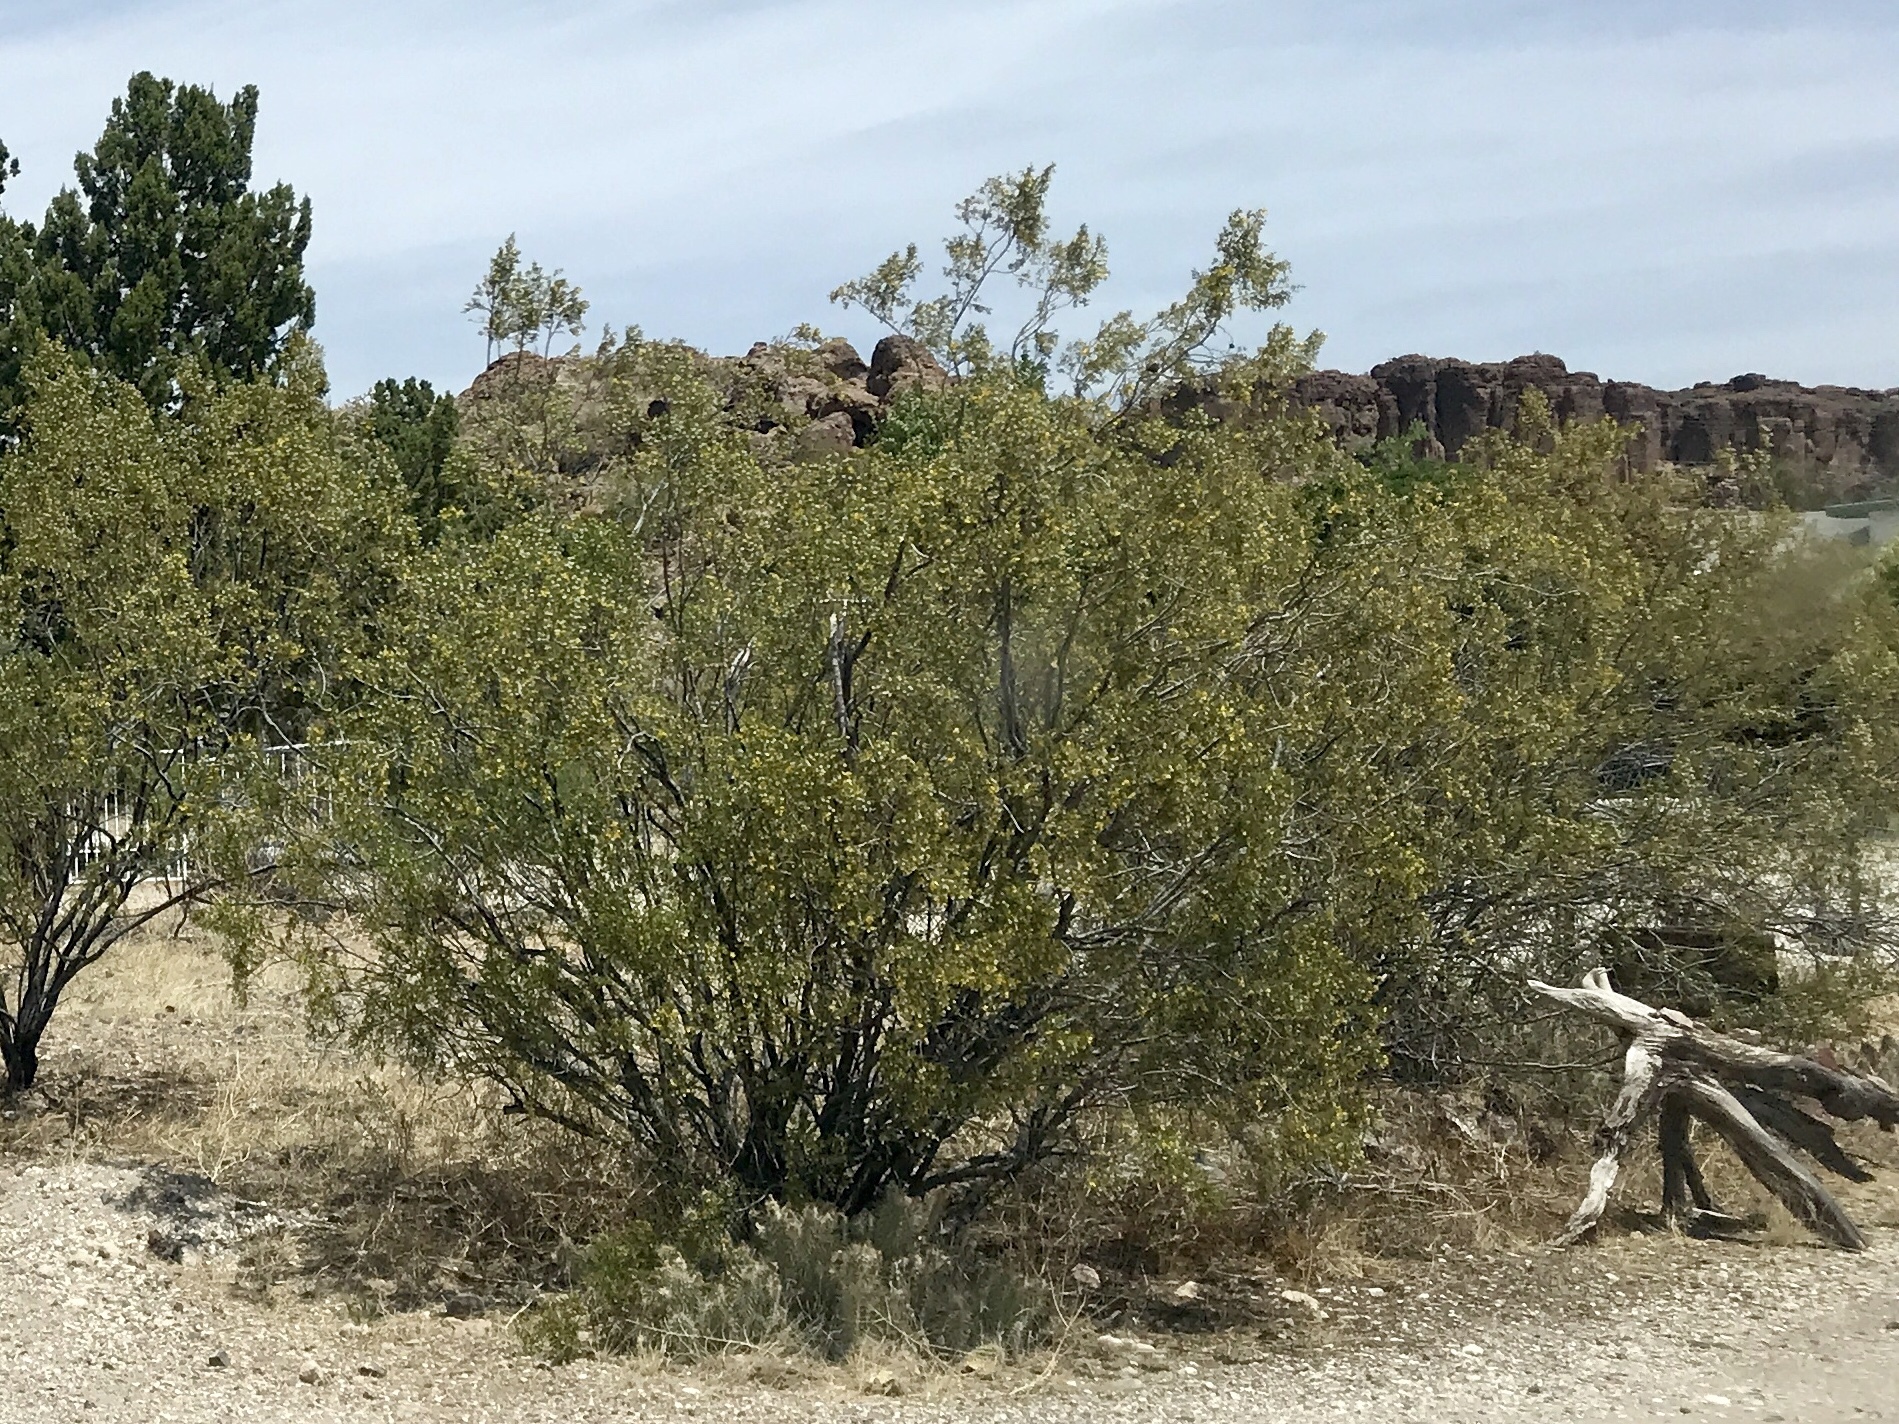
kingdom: Plantae
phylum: Tracheophyta
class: Magnoliopsida
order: Zygophyllales
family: Zygophyllaceae
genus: Larrea
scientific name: Larrea tridentata
